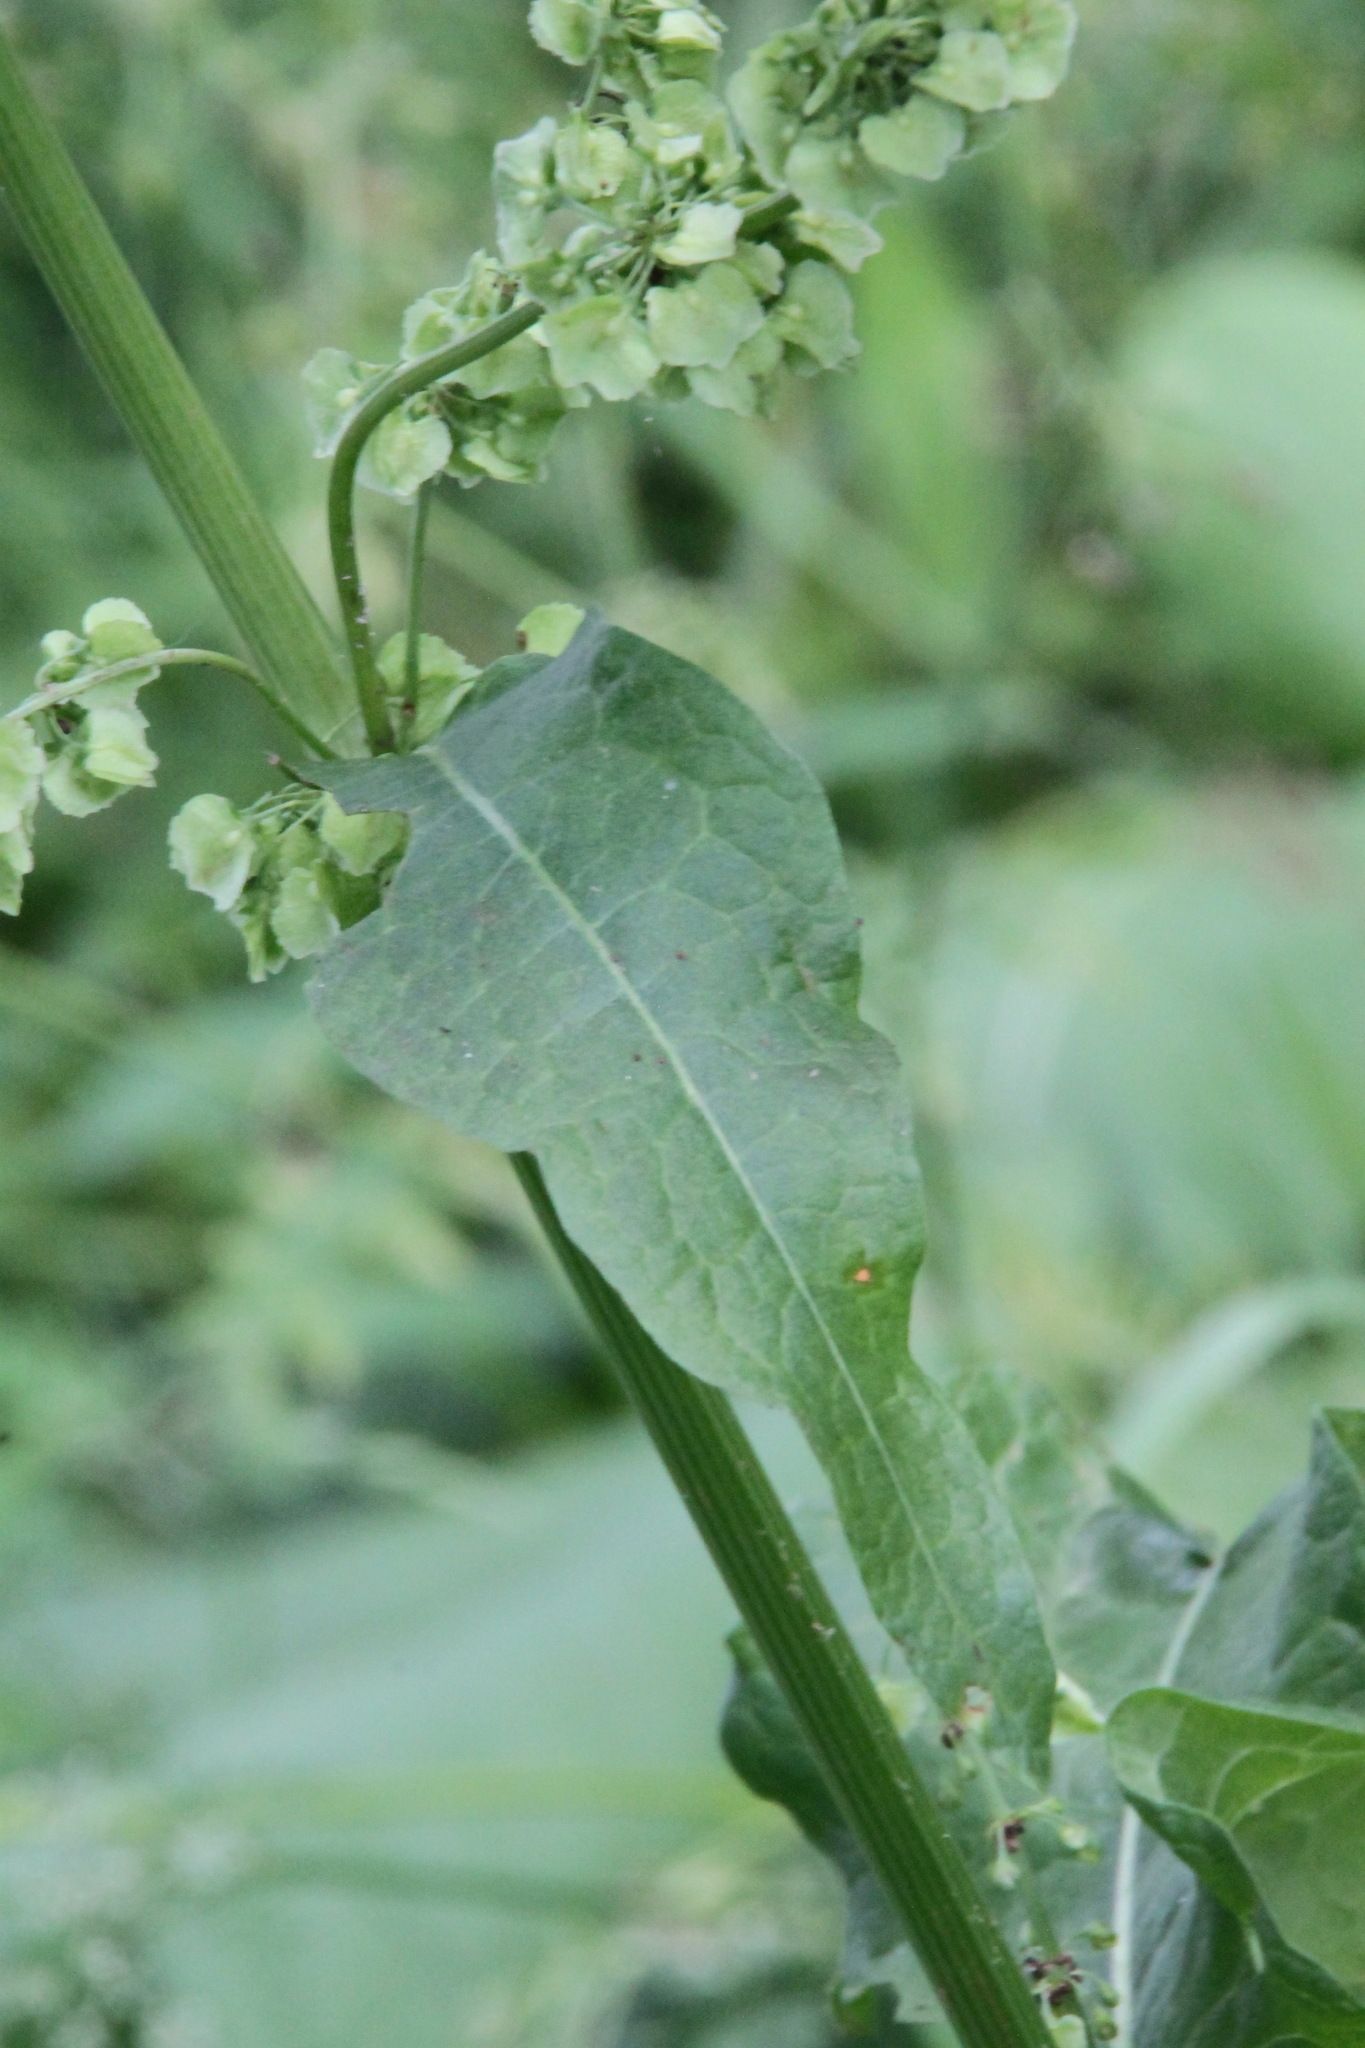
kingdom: Plantae
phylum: Tracheophyta
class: Magnoliopsida
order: Caryophyllales
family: Polygonaceae
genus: Rumex
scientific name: Rumex confertus
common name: Russian dock
